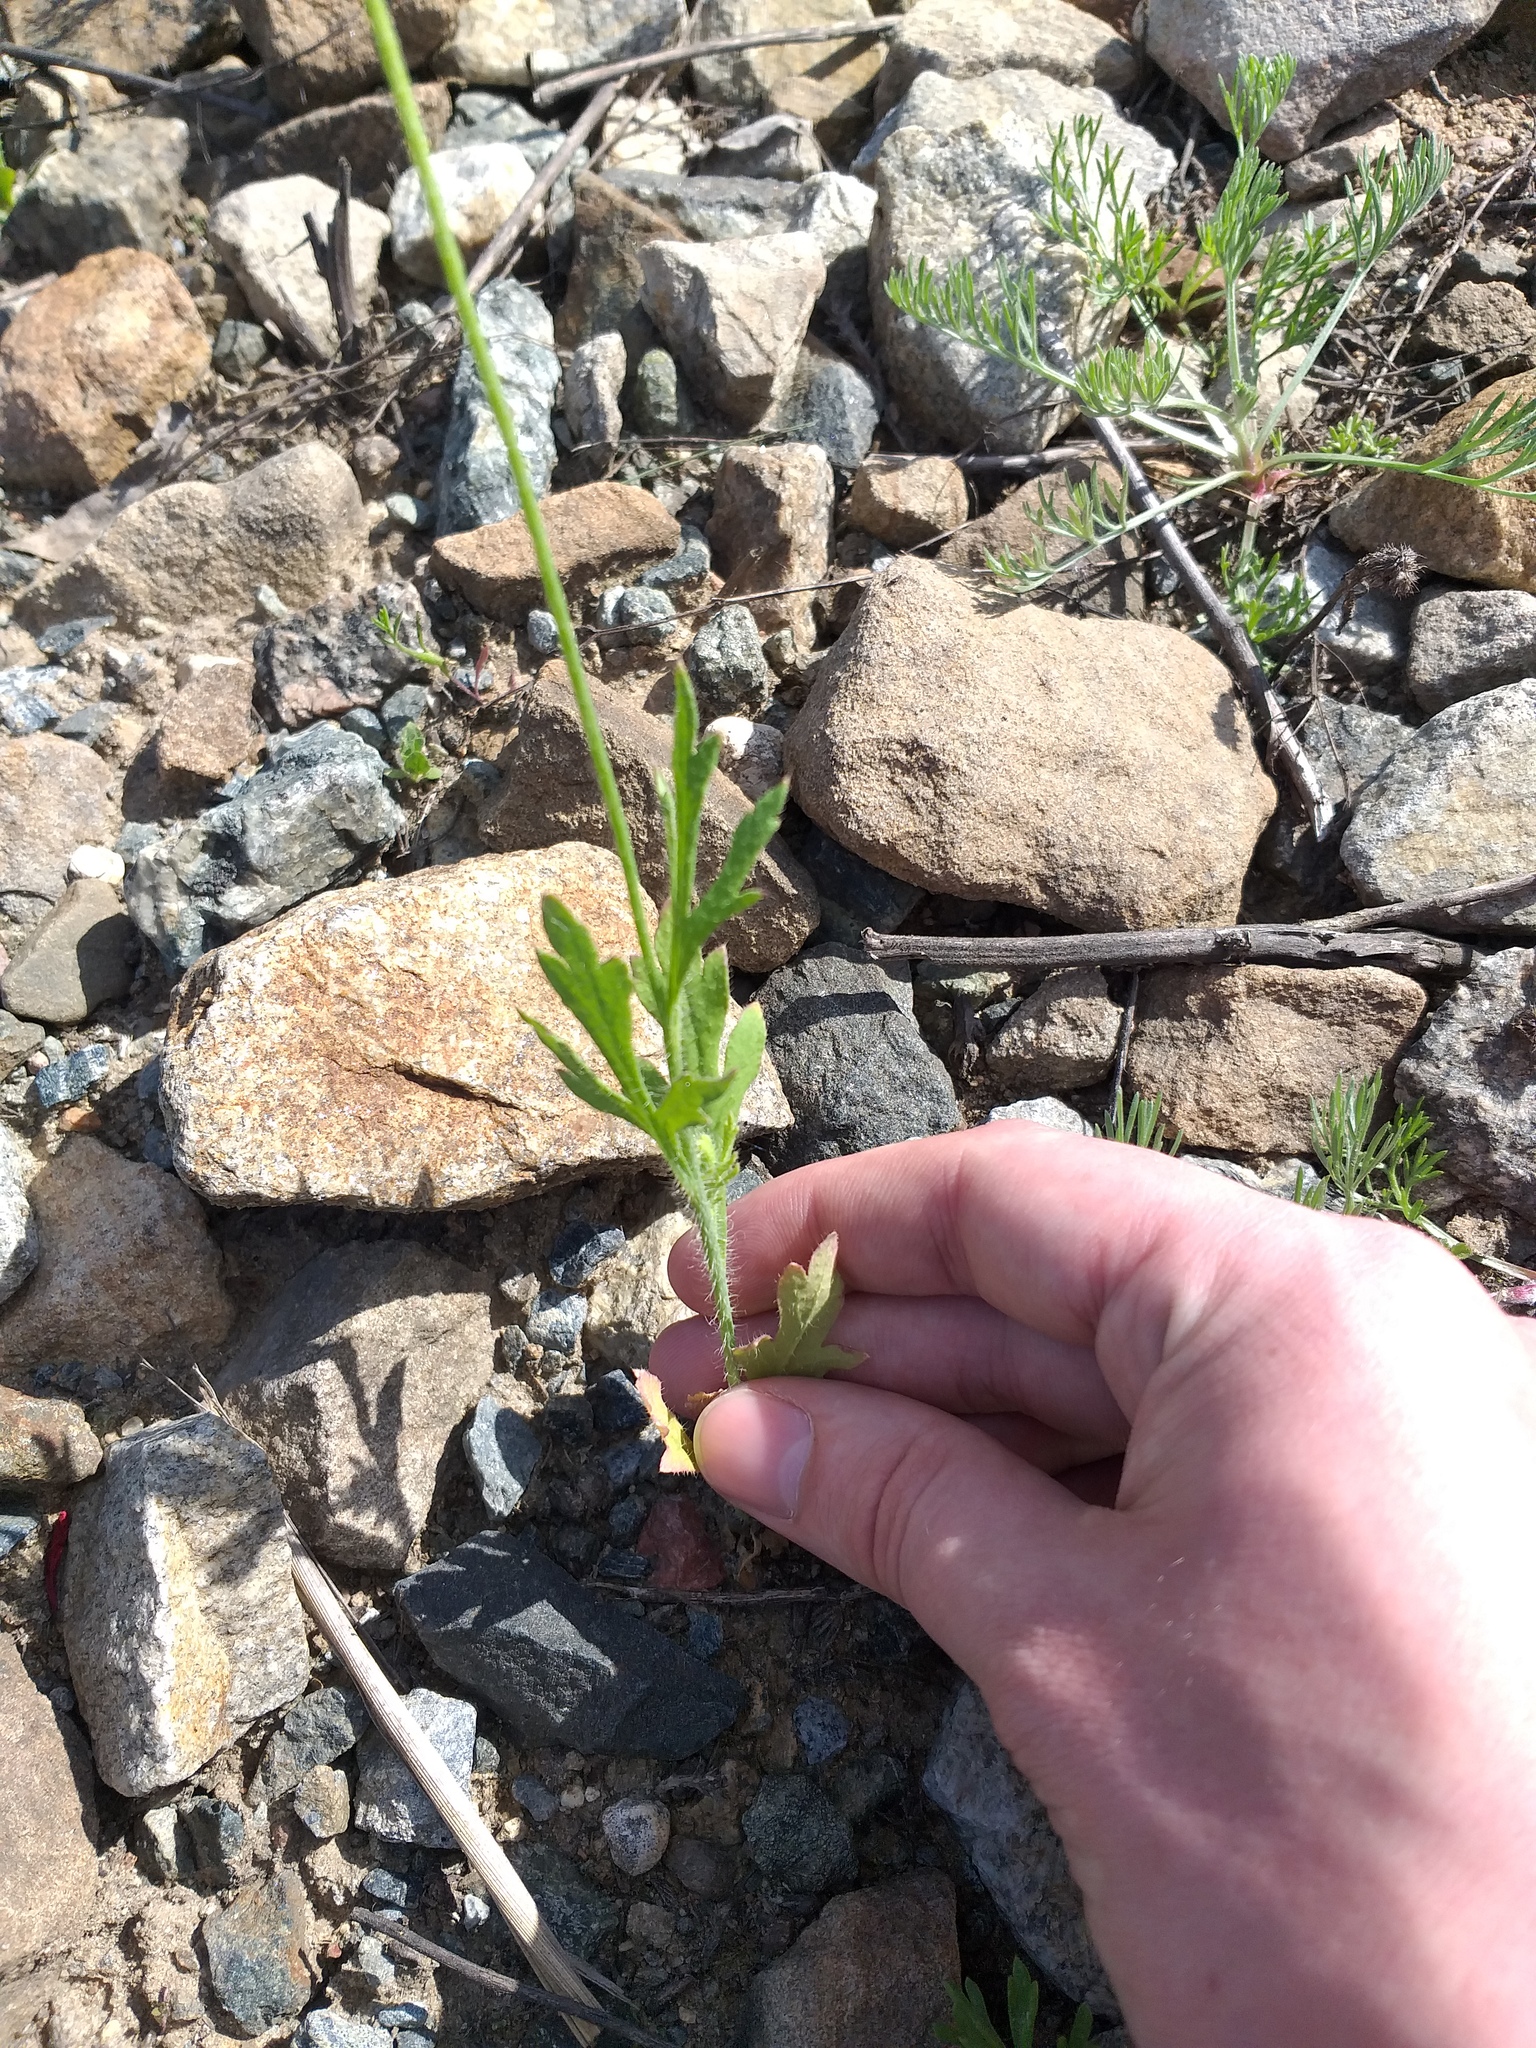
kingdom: Plantae
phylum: Tracheophyta
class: Magnoliopsida
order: Ranunculales
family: Papaveraceae
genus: Papaver
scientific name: Papaver dubium
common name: Long-headed poppy
